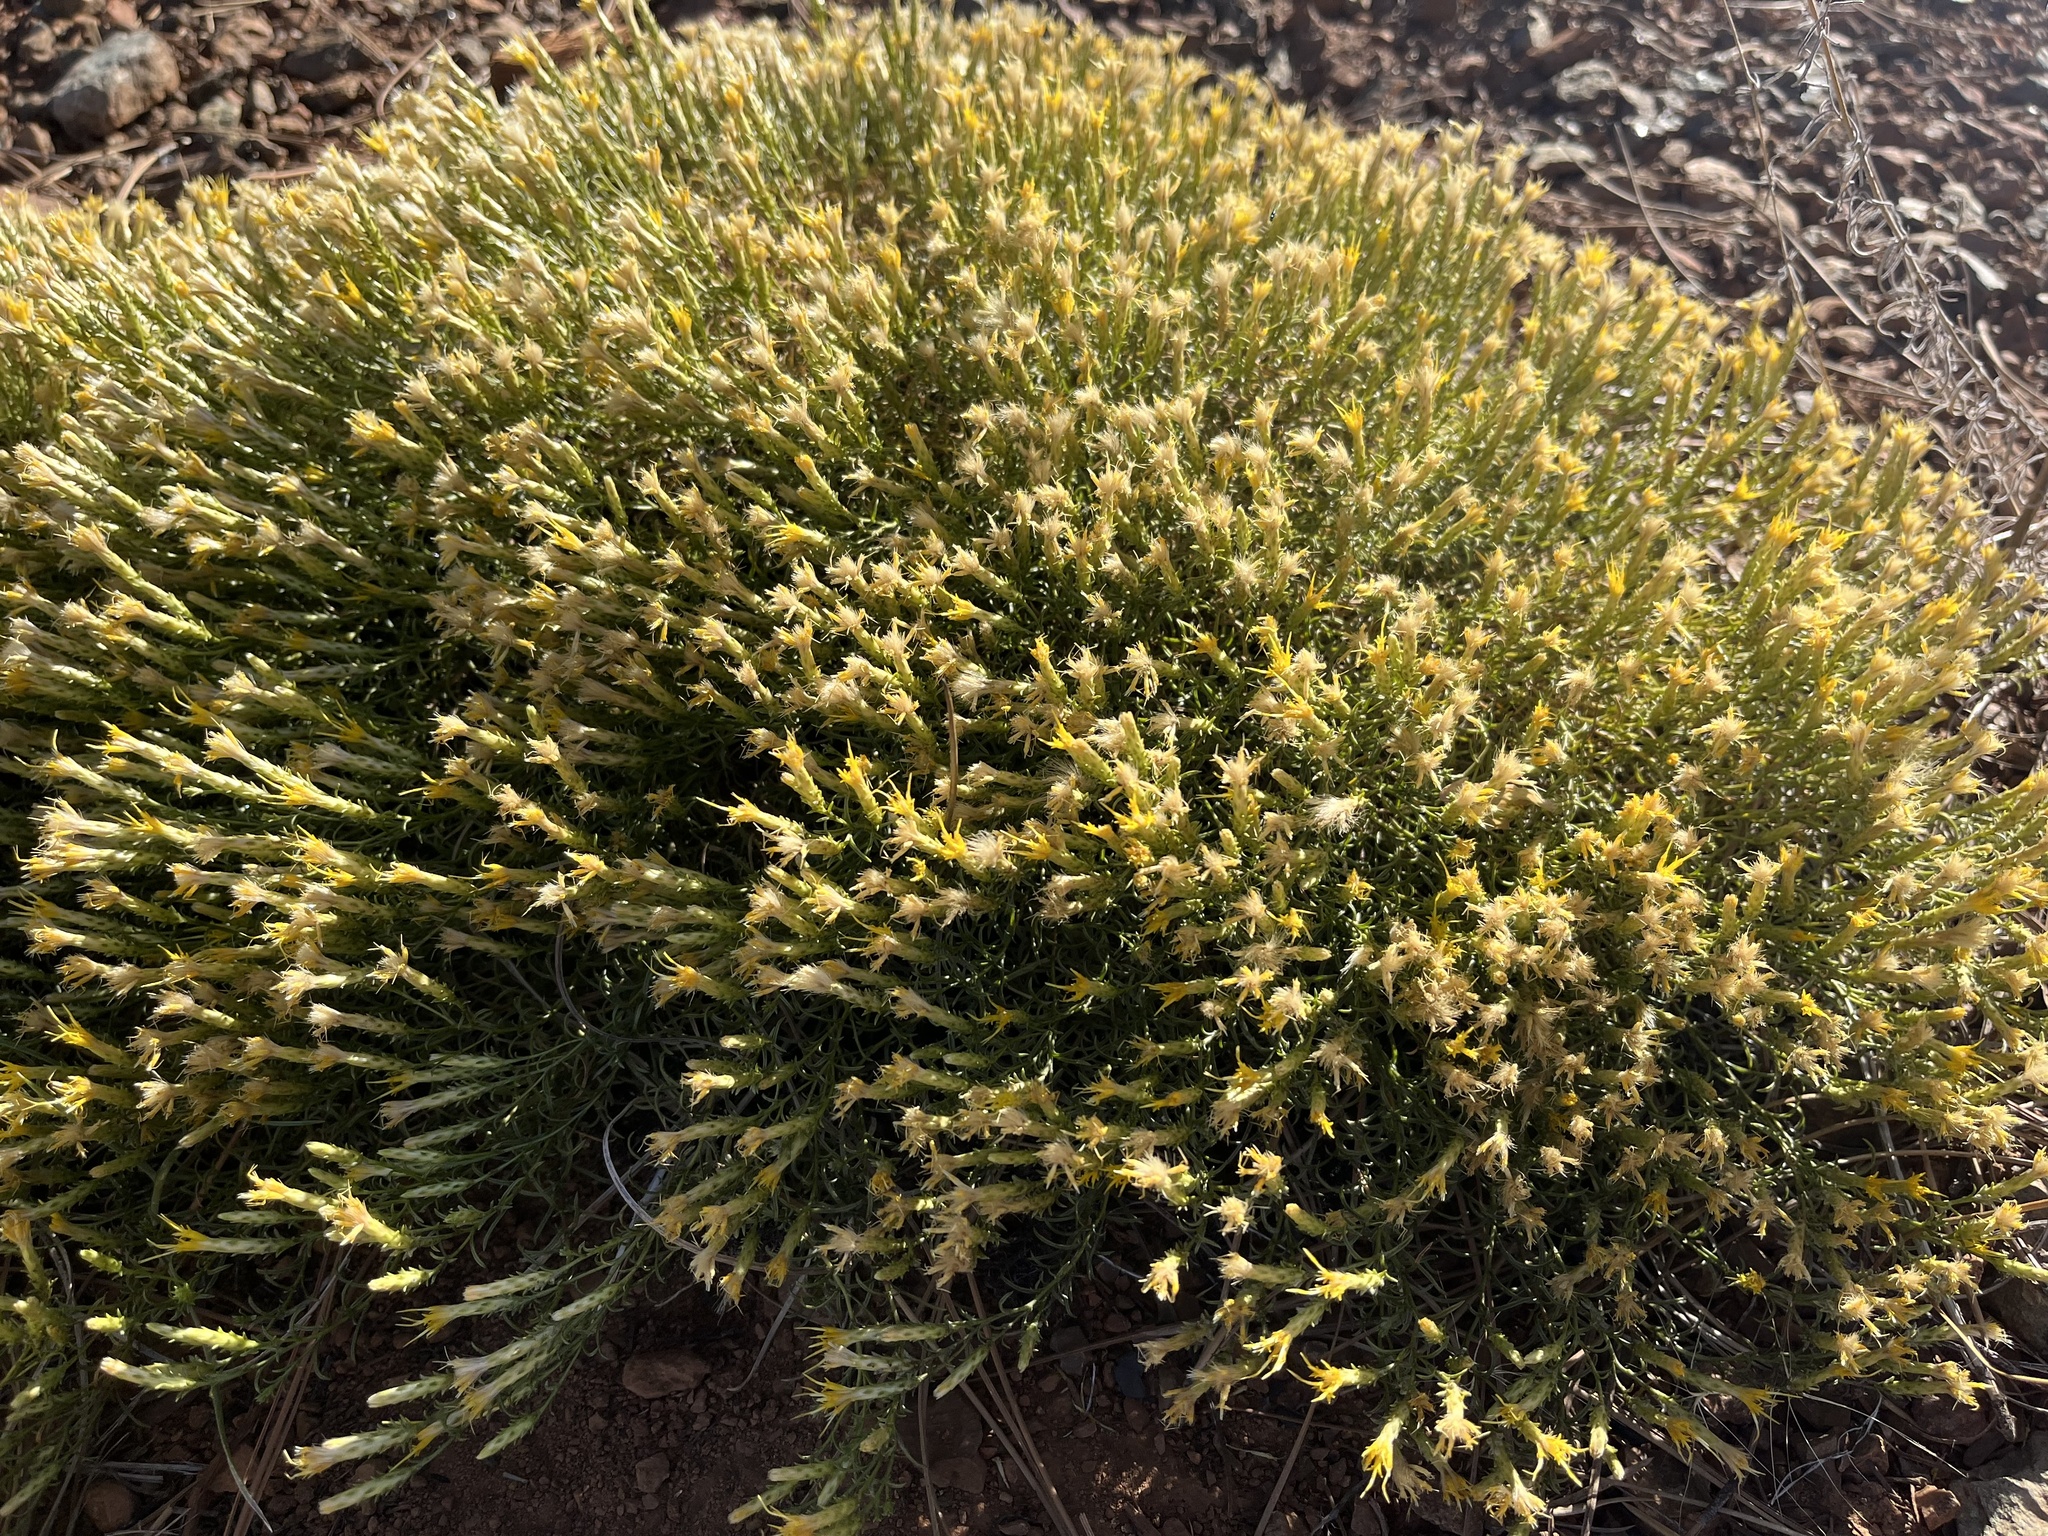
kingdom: Plantae
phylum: Tracheophyta
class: Magnoliopsida
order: Asterales
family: Asteraceae
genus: Ericameria
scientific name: Ericameria ophitidis
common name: Serpentine goldenbush
